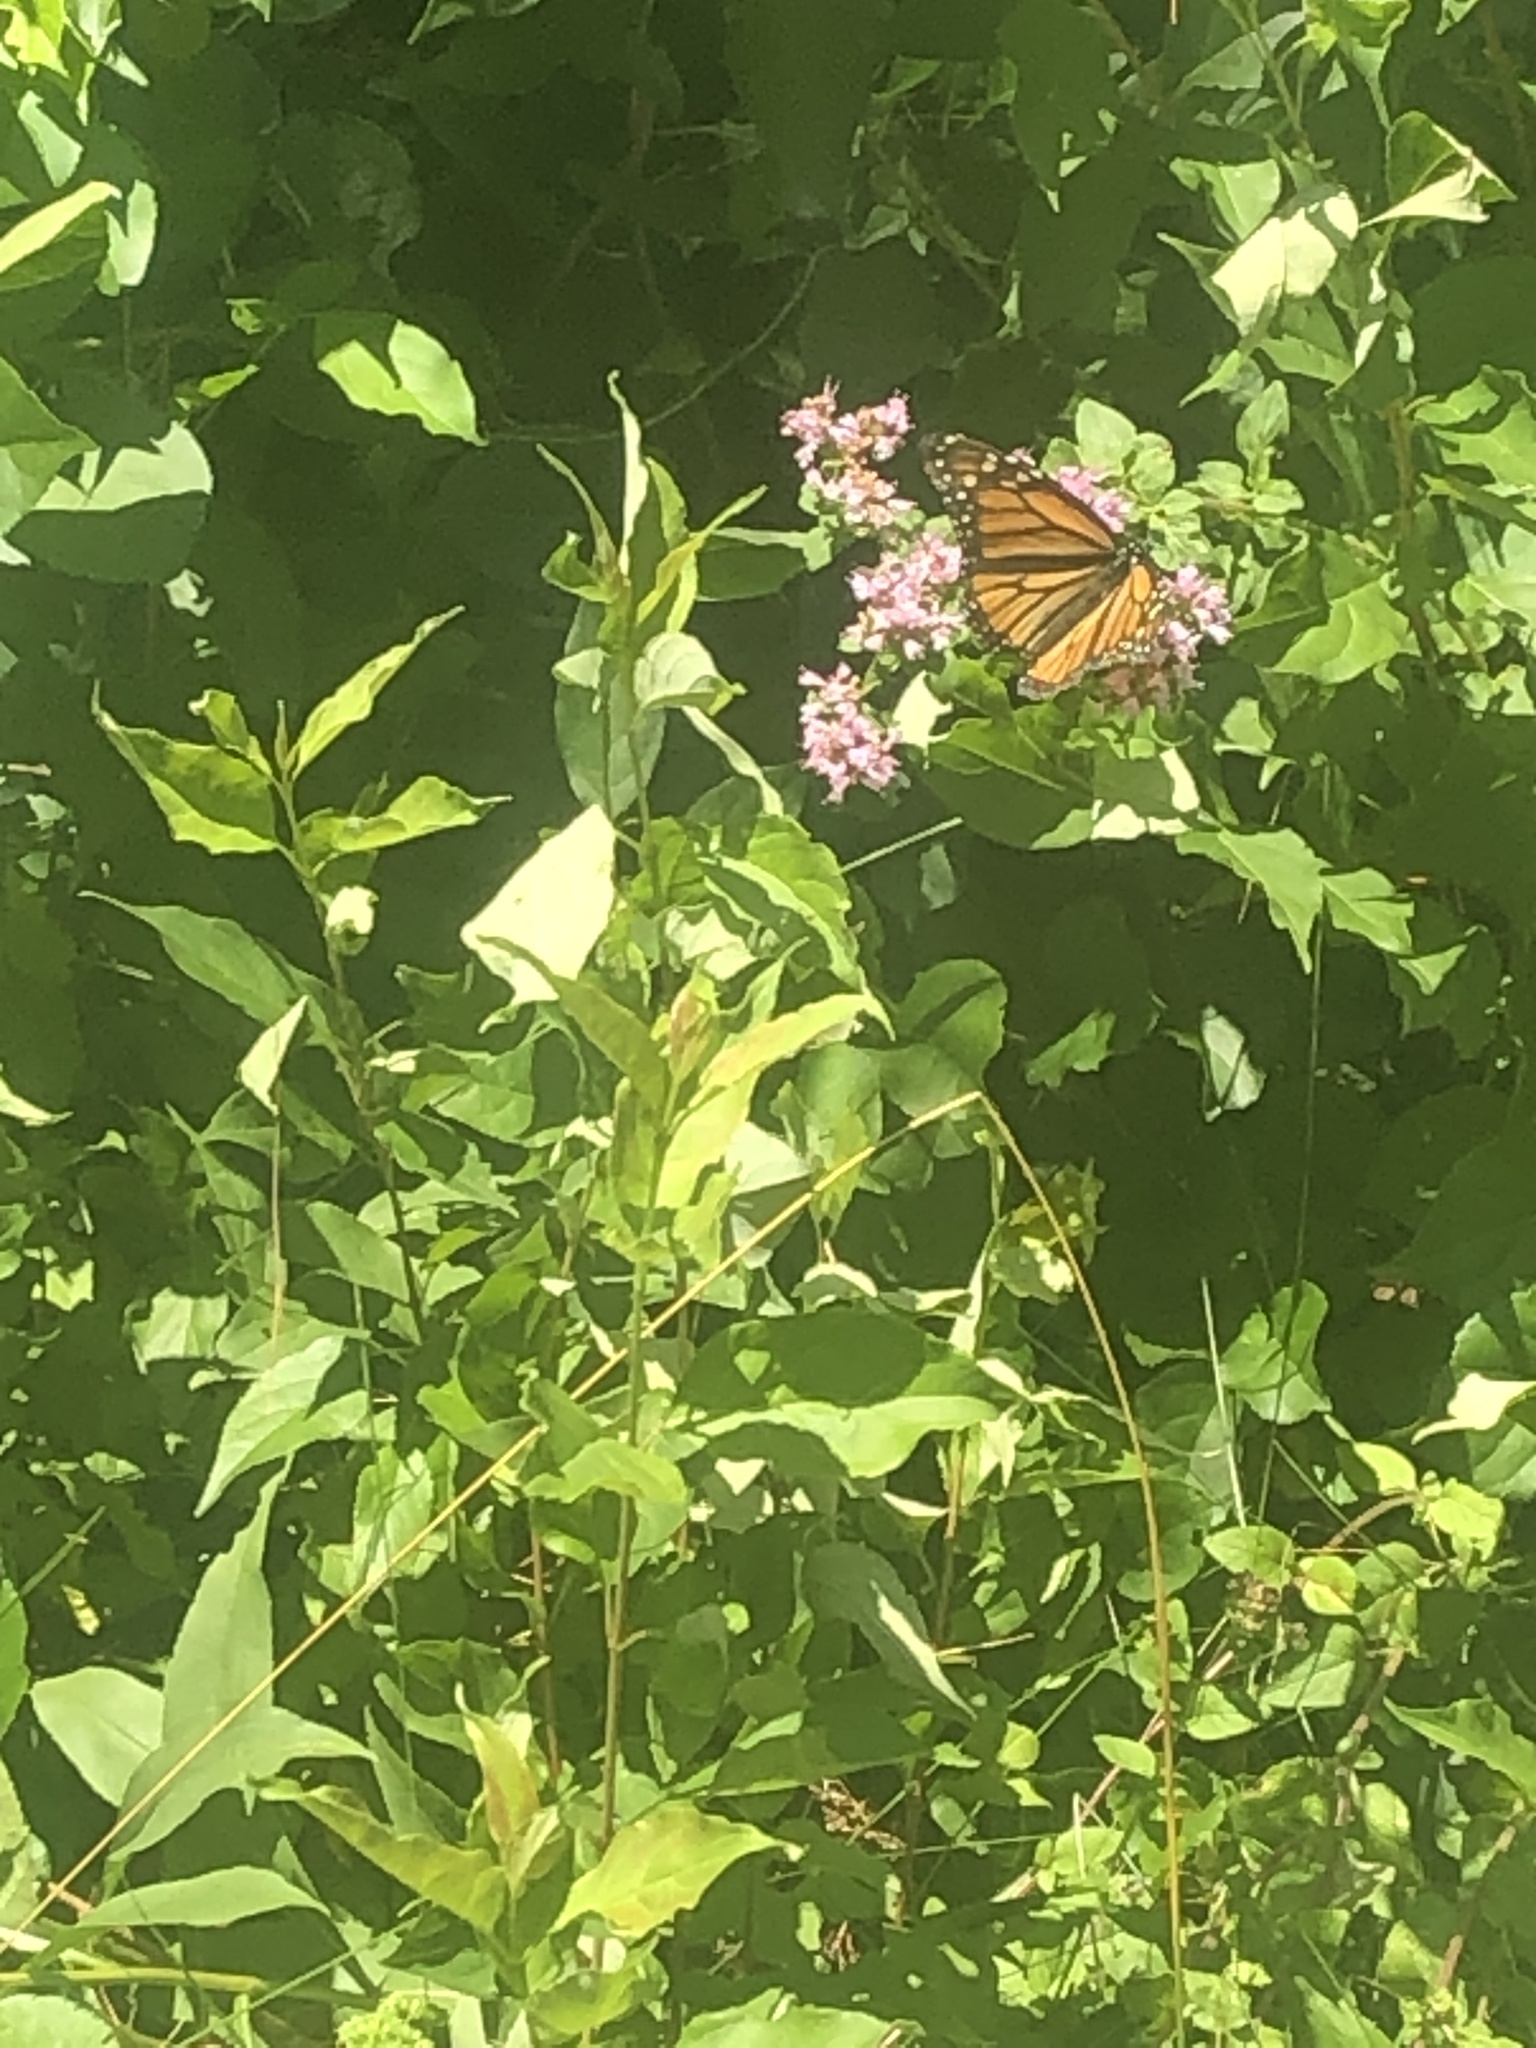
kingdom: Animalia
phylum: Arthropoda
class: Insecta
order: Lepidoptera
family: Nymphalidae
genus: Danaus
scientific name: Danaus plexippus
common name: Monarch
